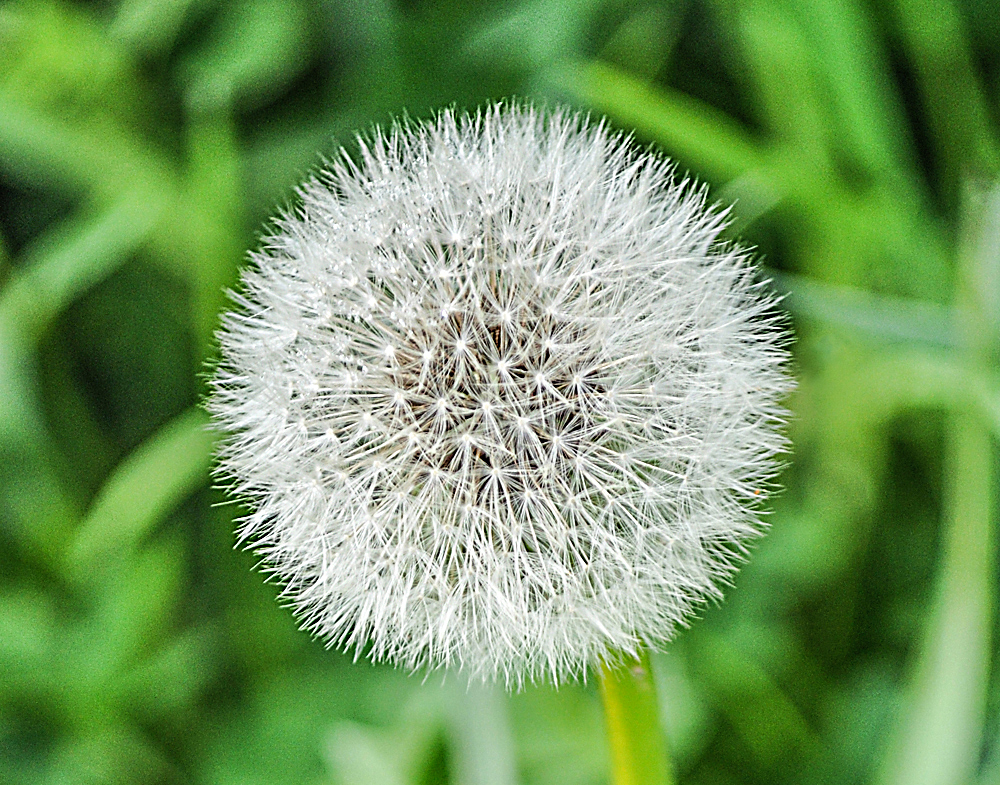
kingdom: Plantae
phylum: Tracheophyta
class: Magnoliopsida
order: Asterales
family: Asteraceae
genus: Taraxacum
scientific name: Taraxacum officinale
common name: Common dandelion
